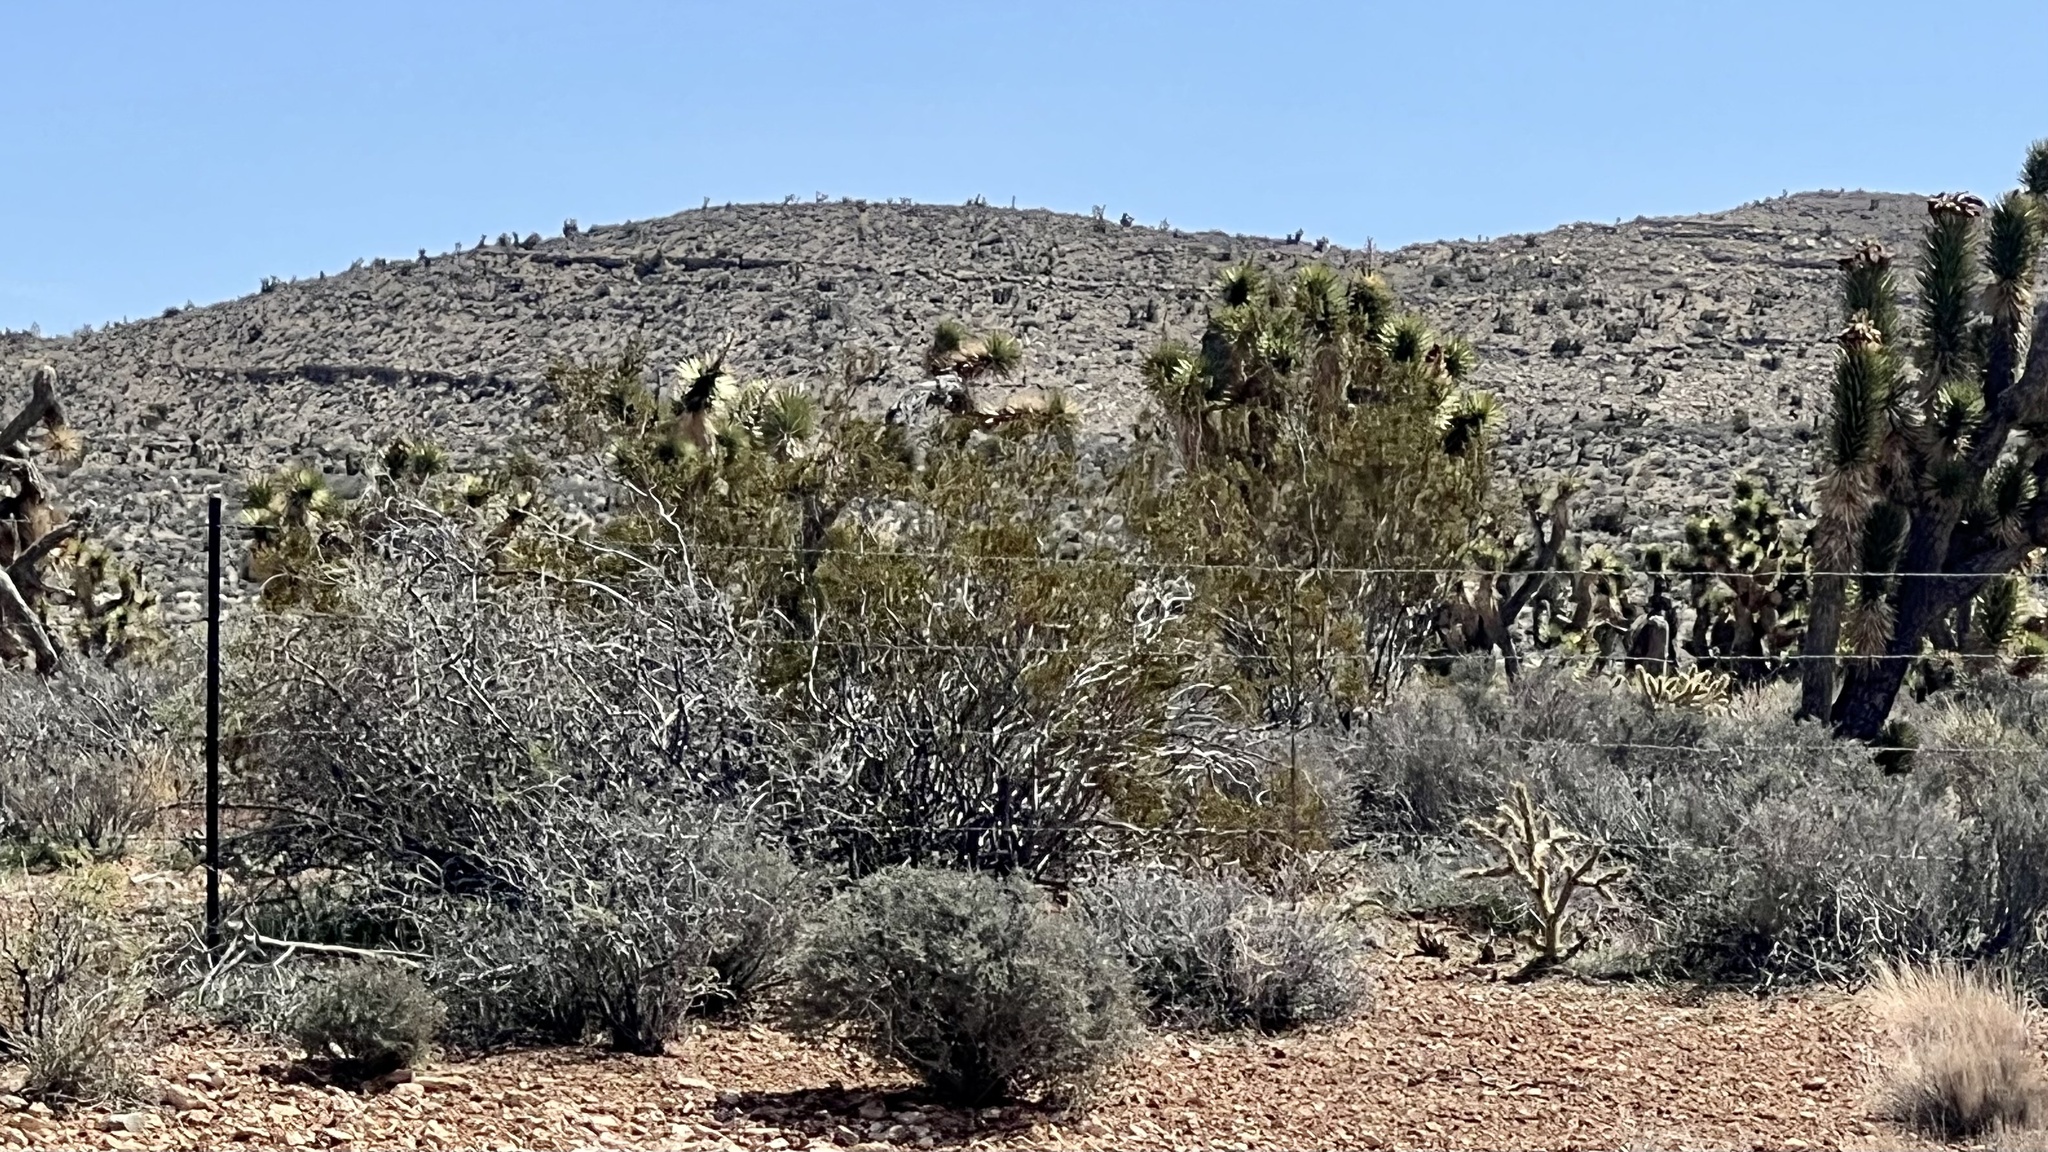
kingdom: Plantae
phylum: Tracheophyta
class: Magnoliopsida
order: Zygophyllales
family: Zygophyllaceae
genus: Larrea
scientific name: Larrea tridentata
